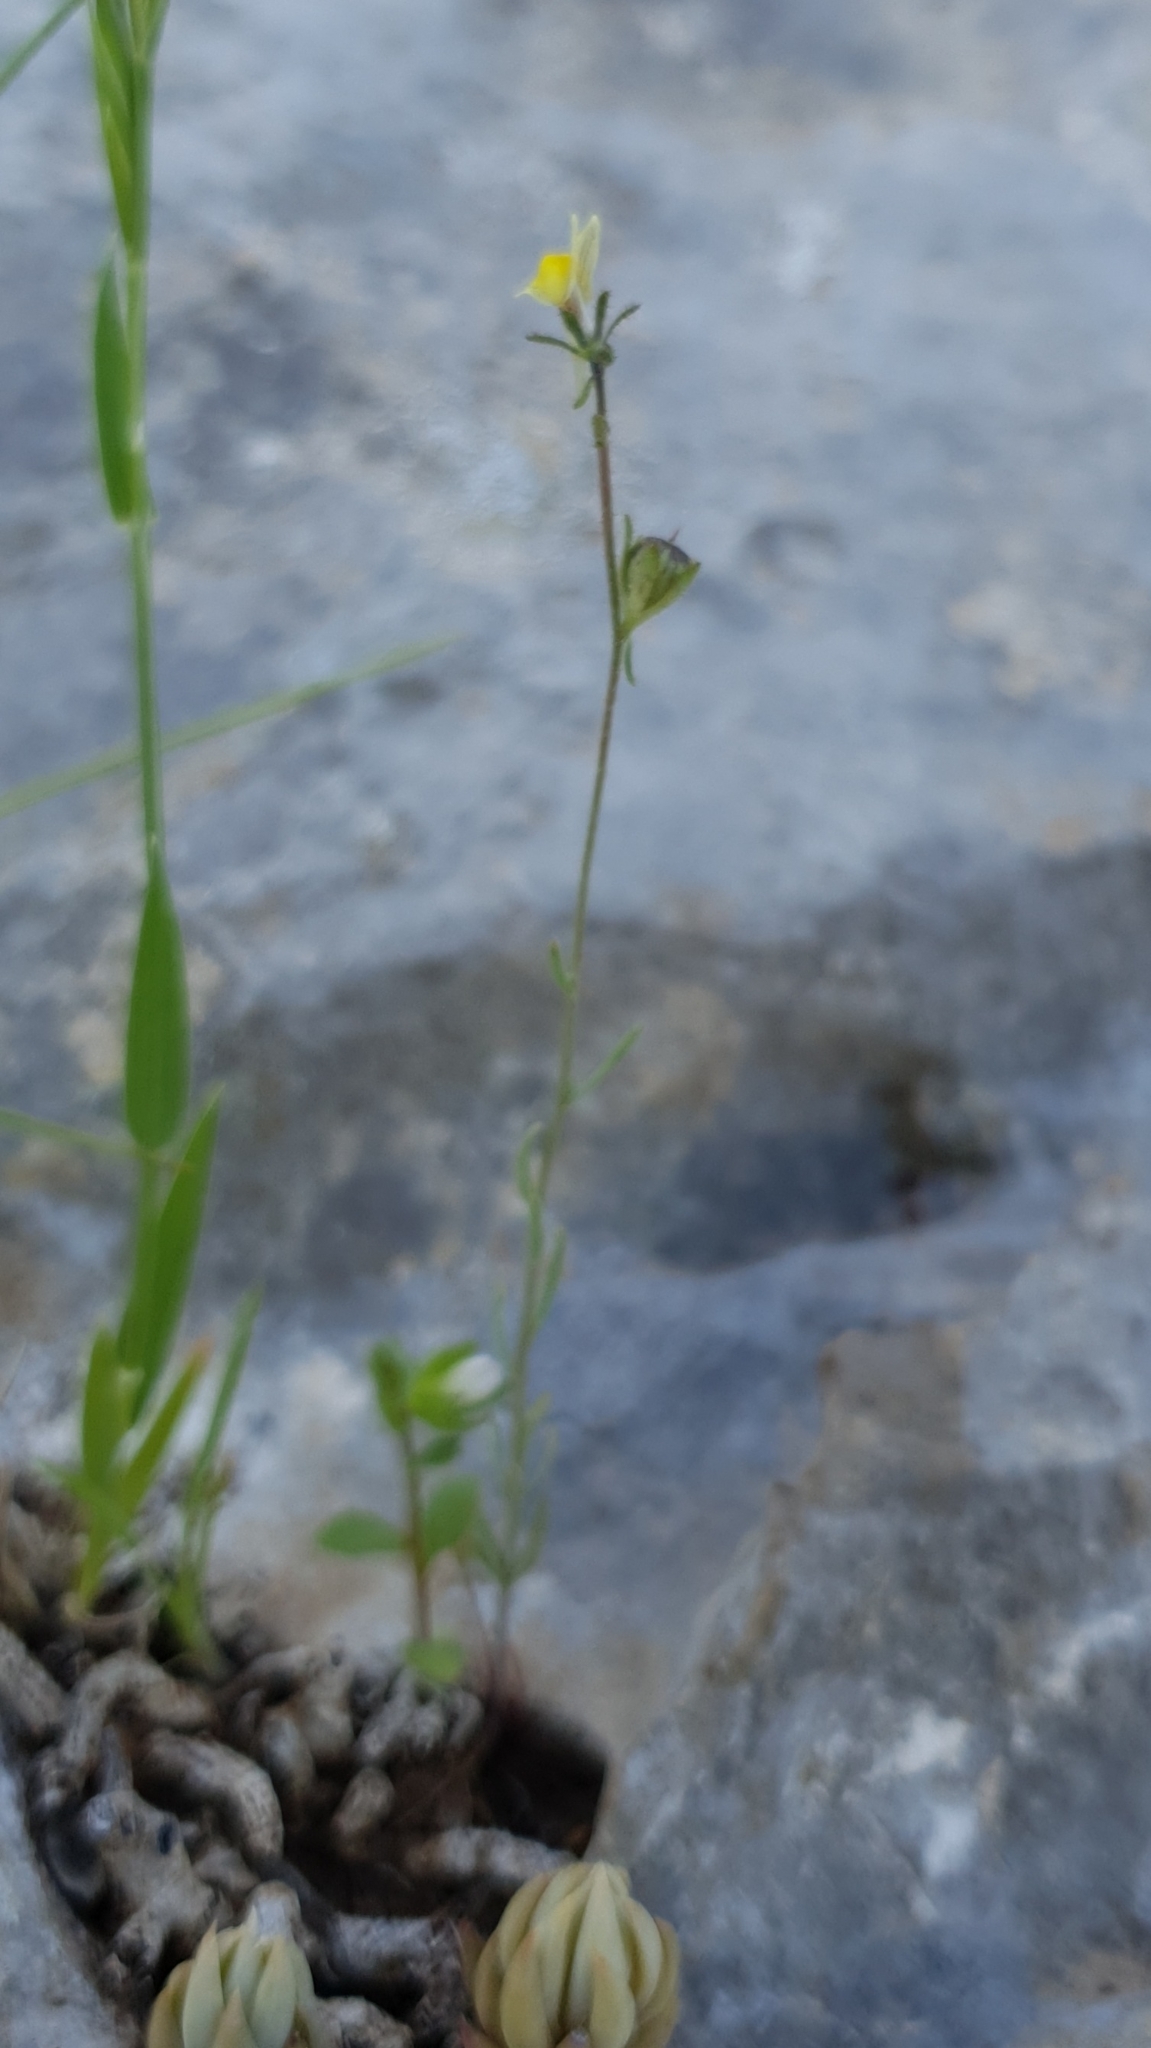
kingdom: Plantae
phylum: Tracheophyta
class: Magnoliopsida
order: Lamiales
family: Plantaginaceae
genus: Linaria
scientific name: Linaria simplex
